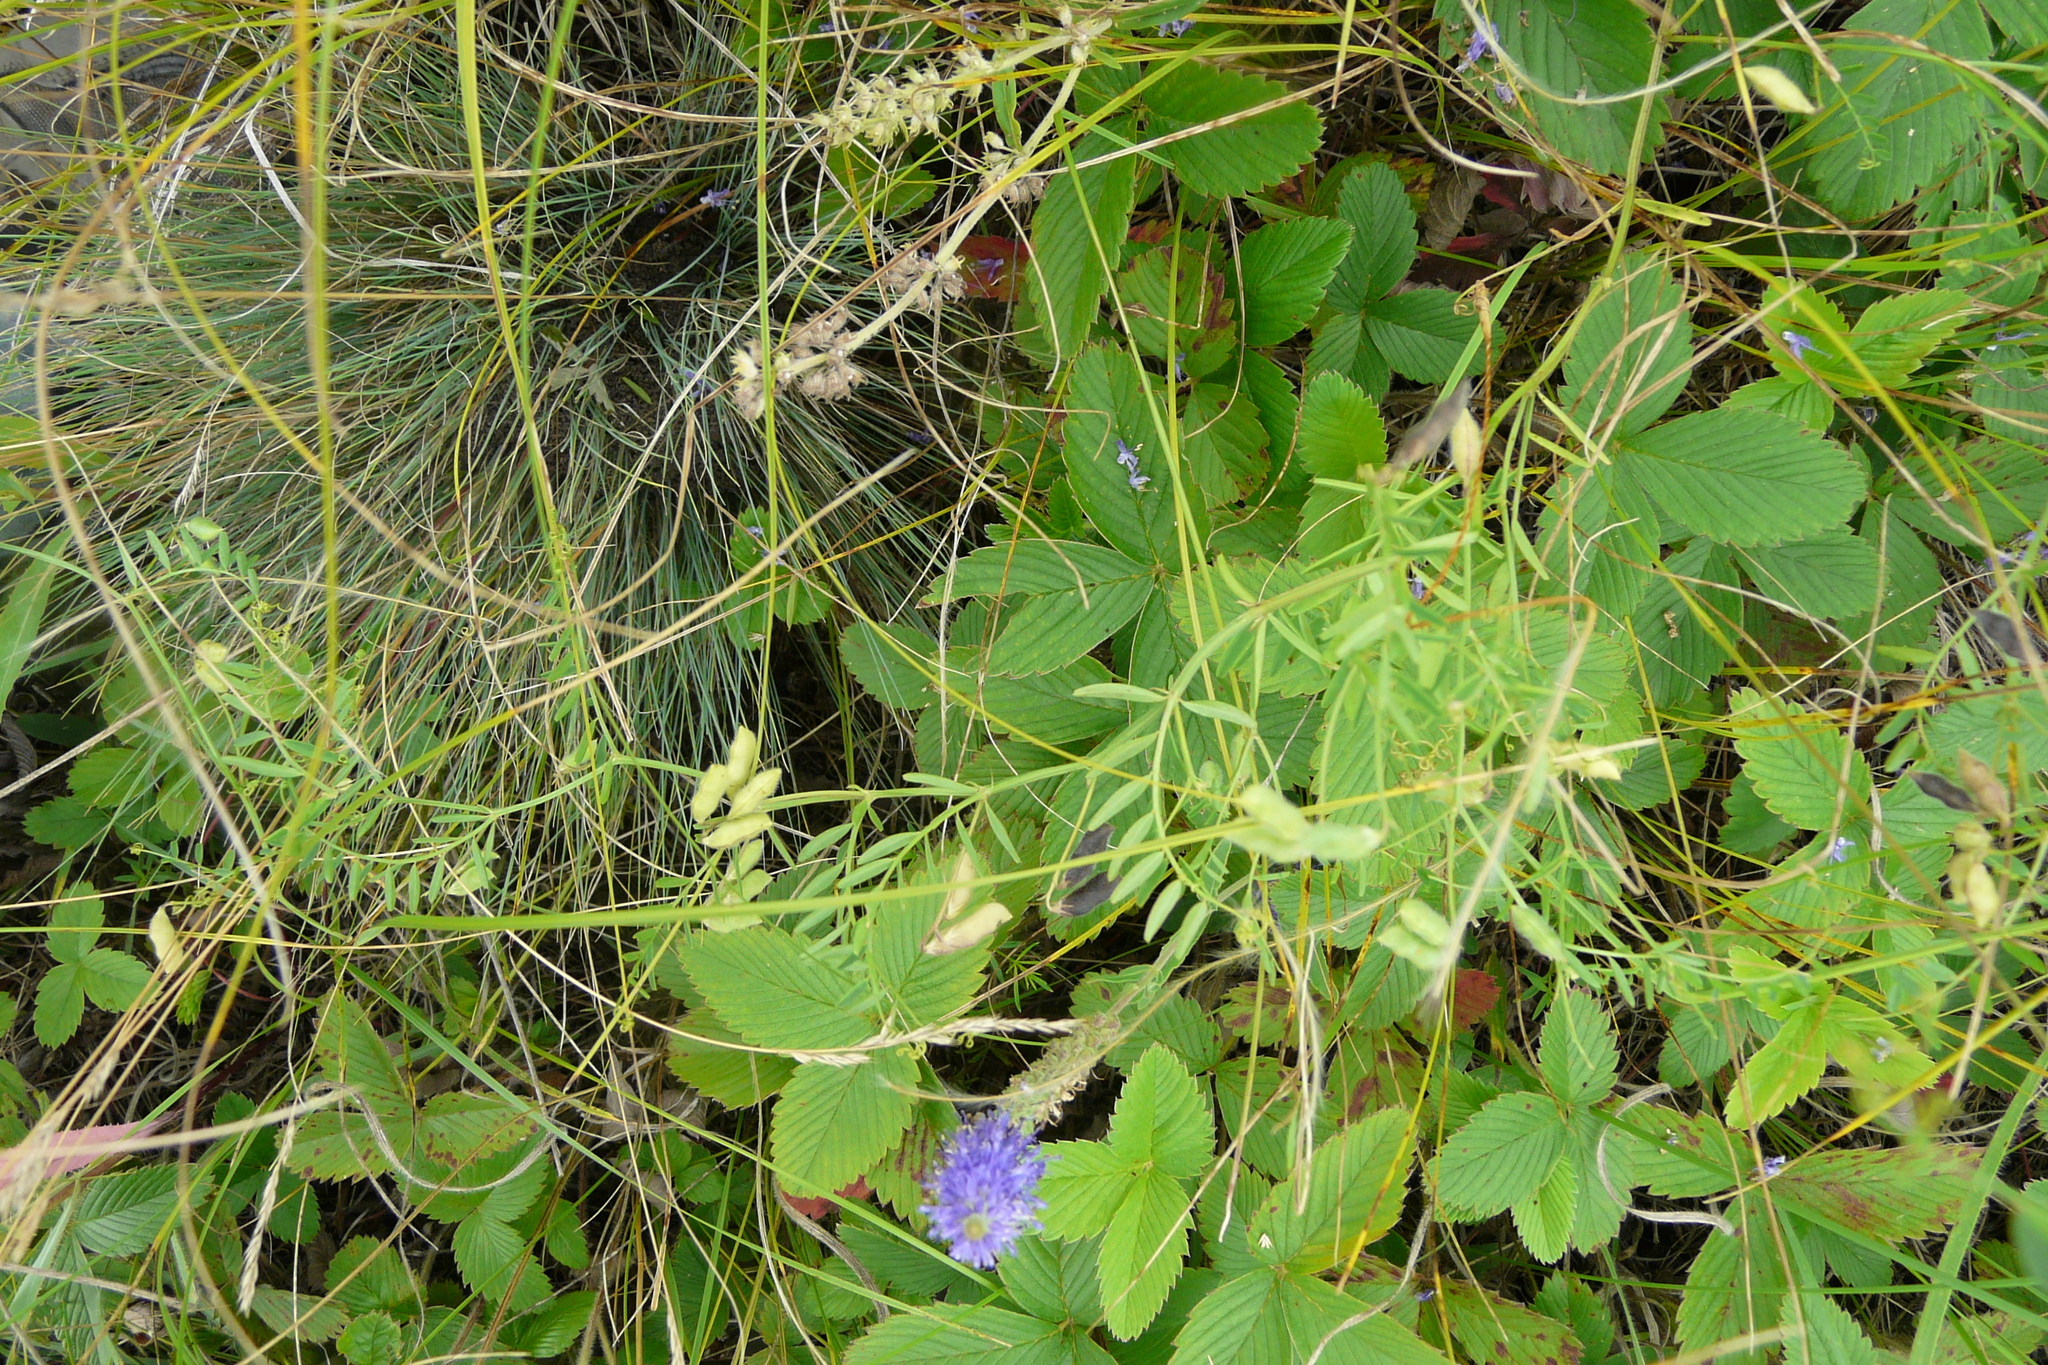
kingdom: Plantae
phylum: Tracheophyta
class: Magnoliopsida
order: Fabales
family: Fabaceae
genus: Vicia
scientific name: Vicia hirsuta
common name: Tiny vetch
